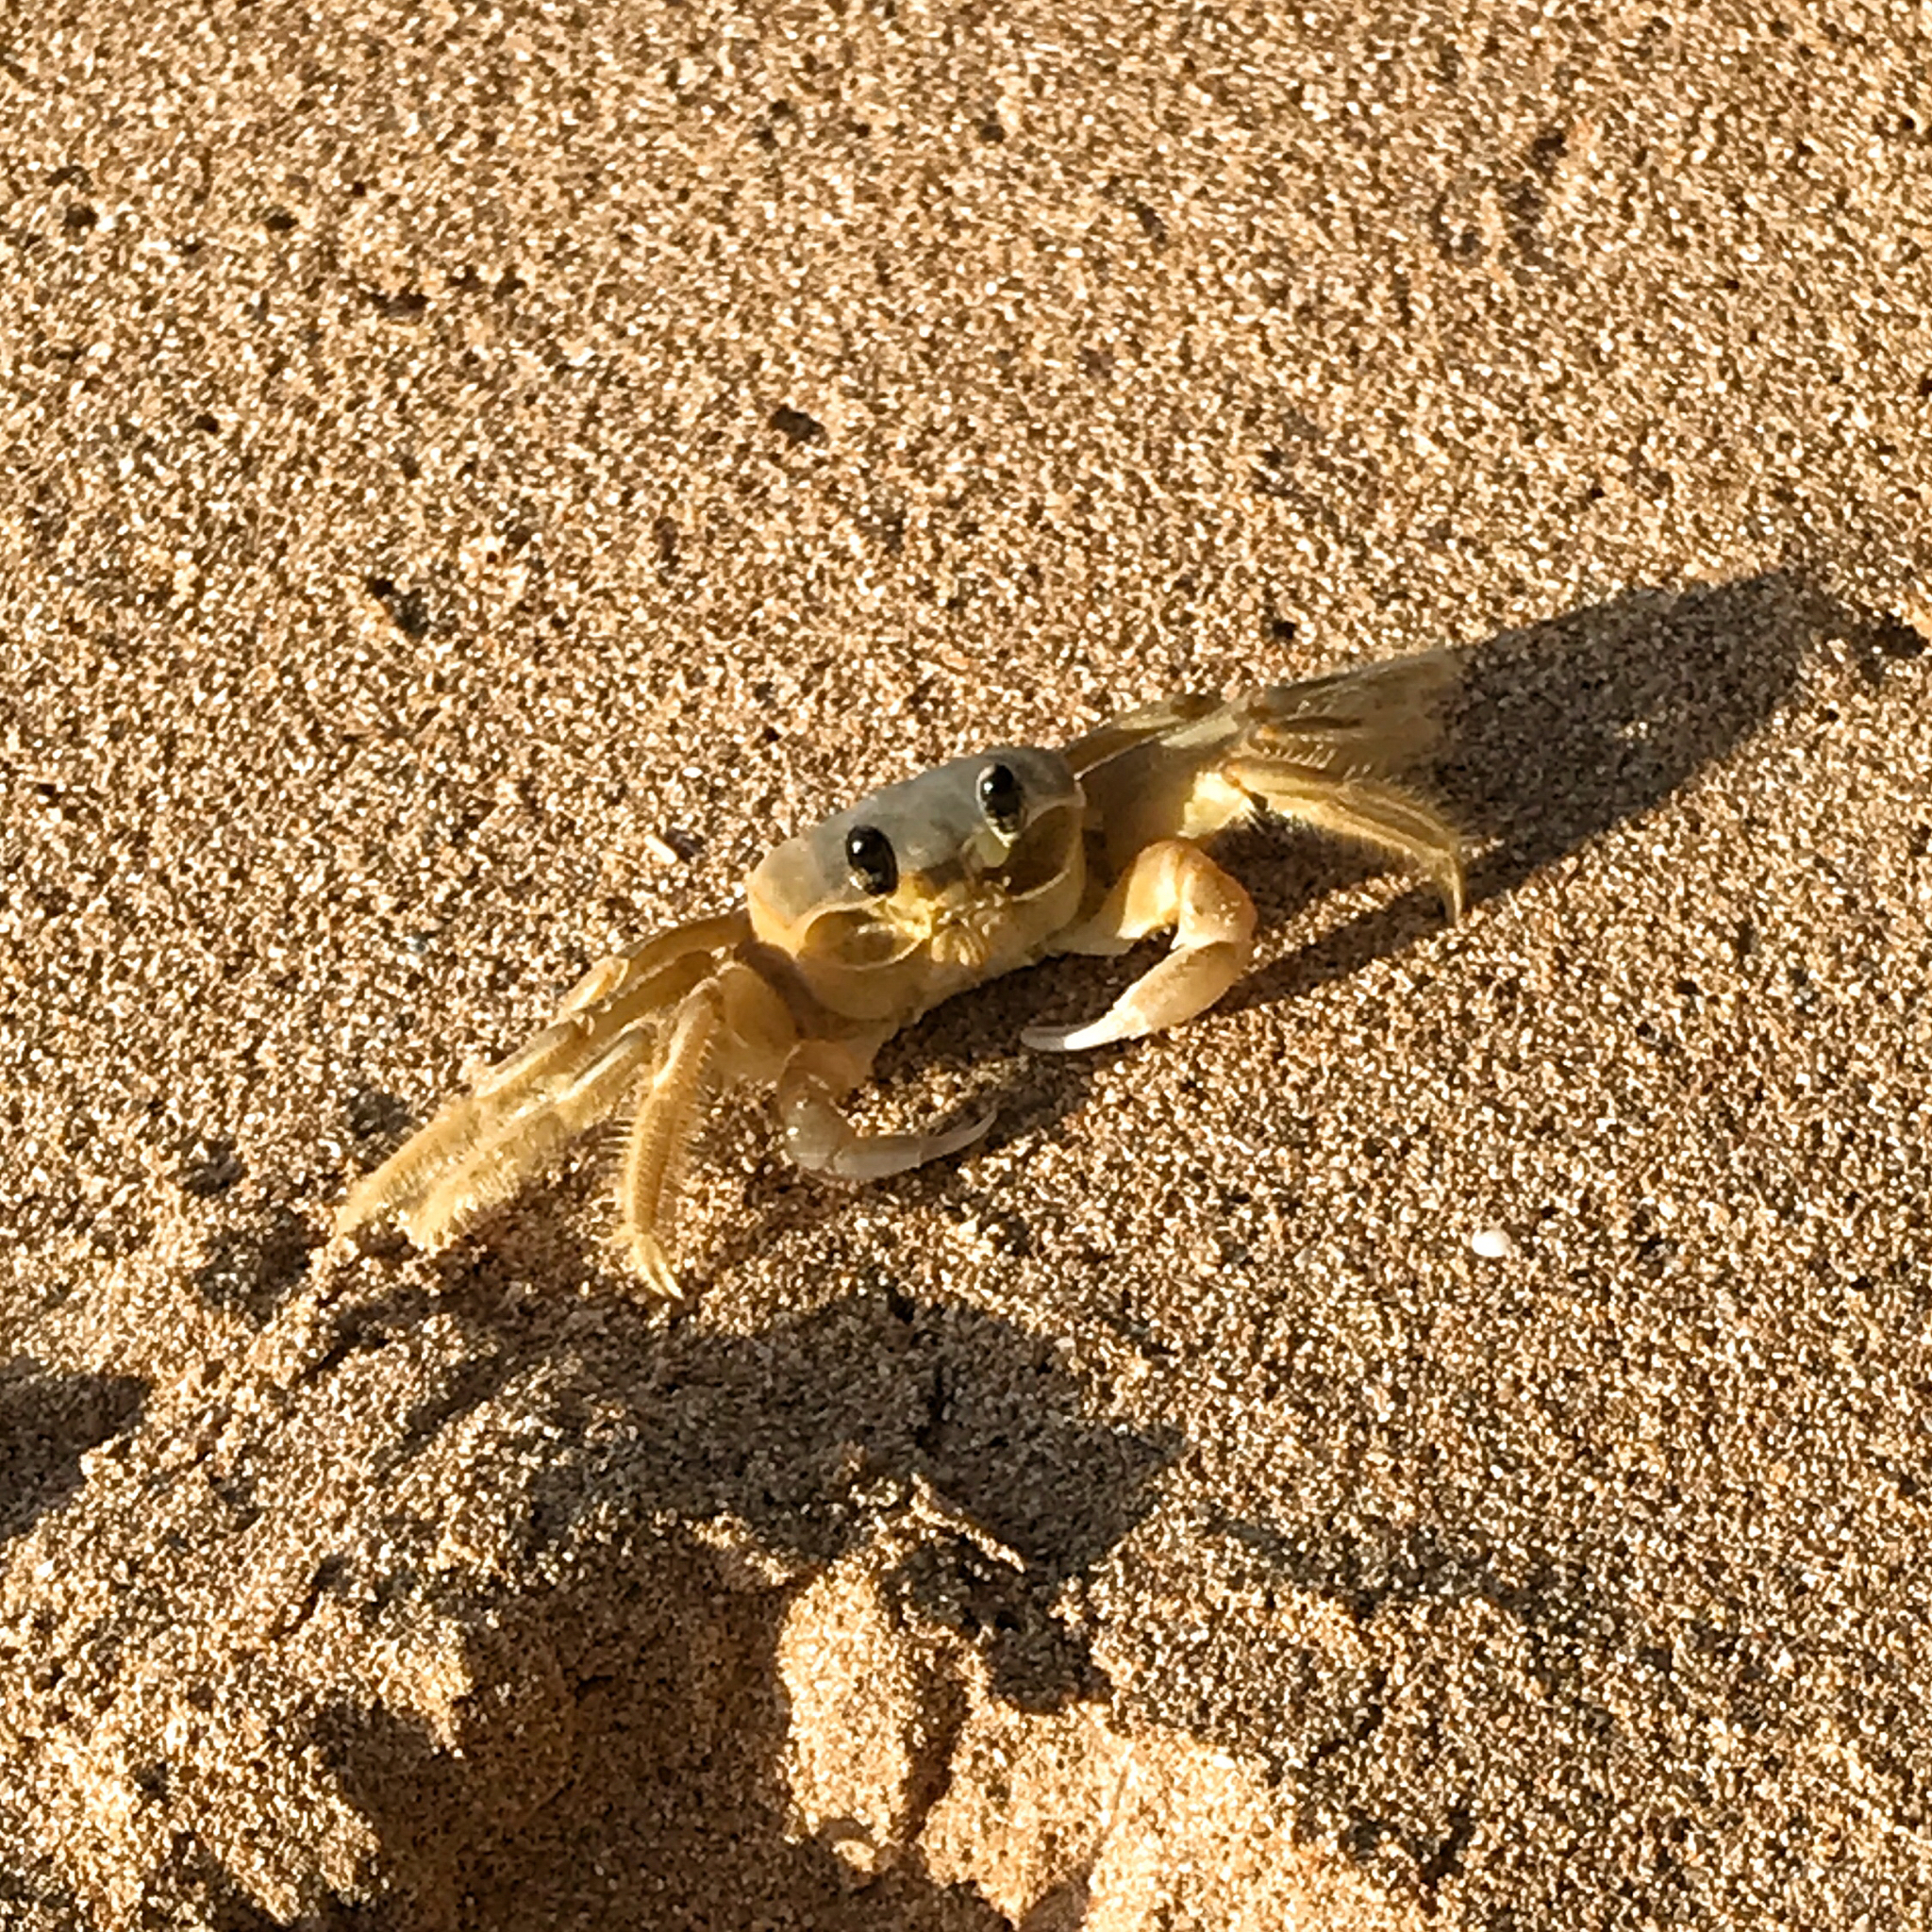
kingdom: Animalia
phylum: Arthropoda
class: Malacostraca
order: Decapoda
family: Ocypodidae
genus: Ocypode
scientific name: Ocypode quadrata
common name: Ghost crab
